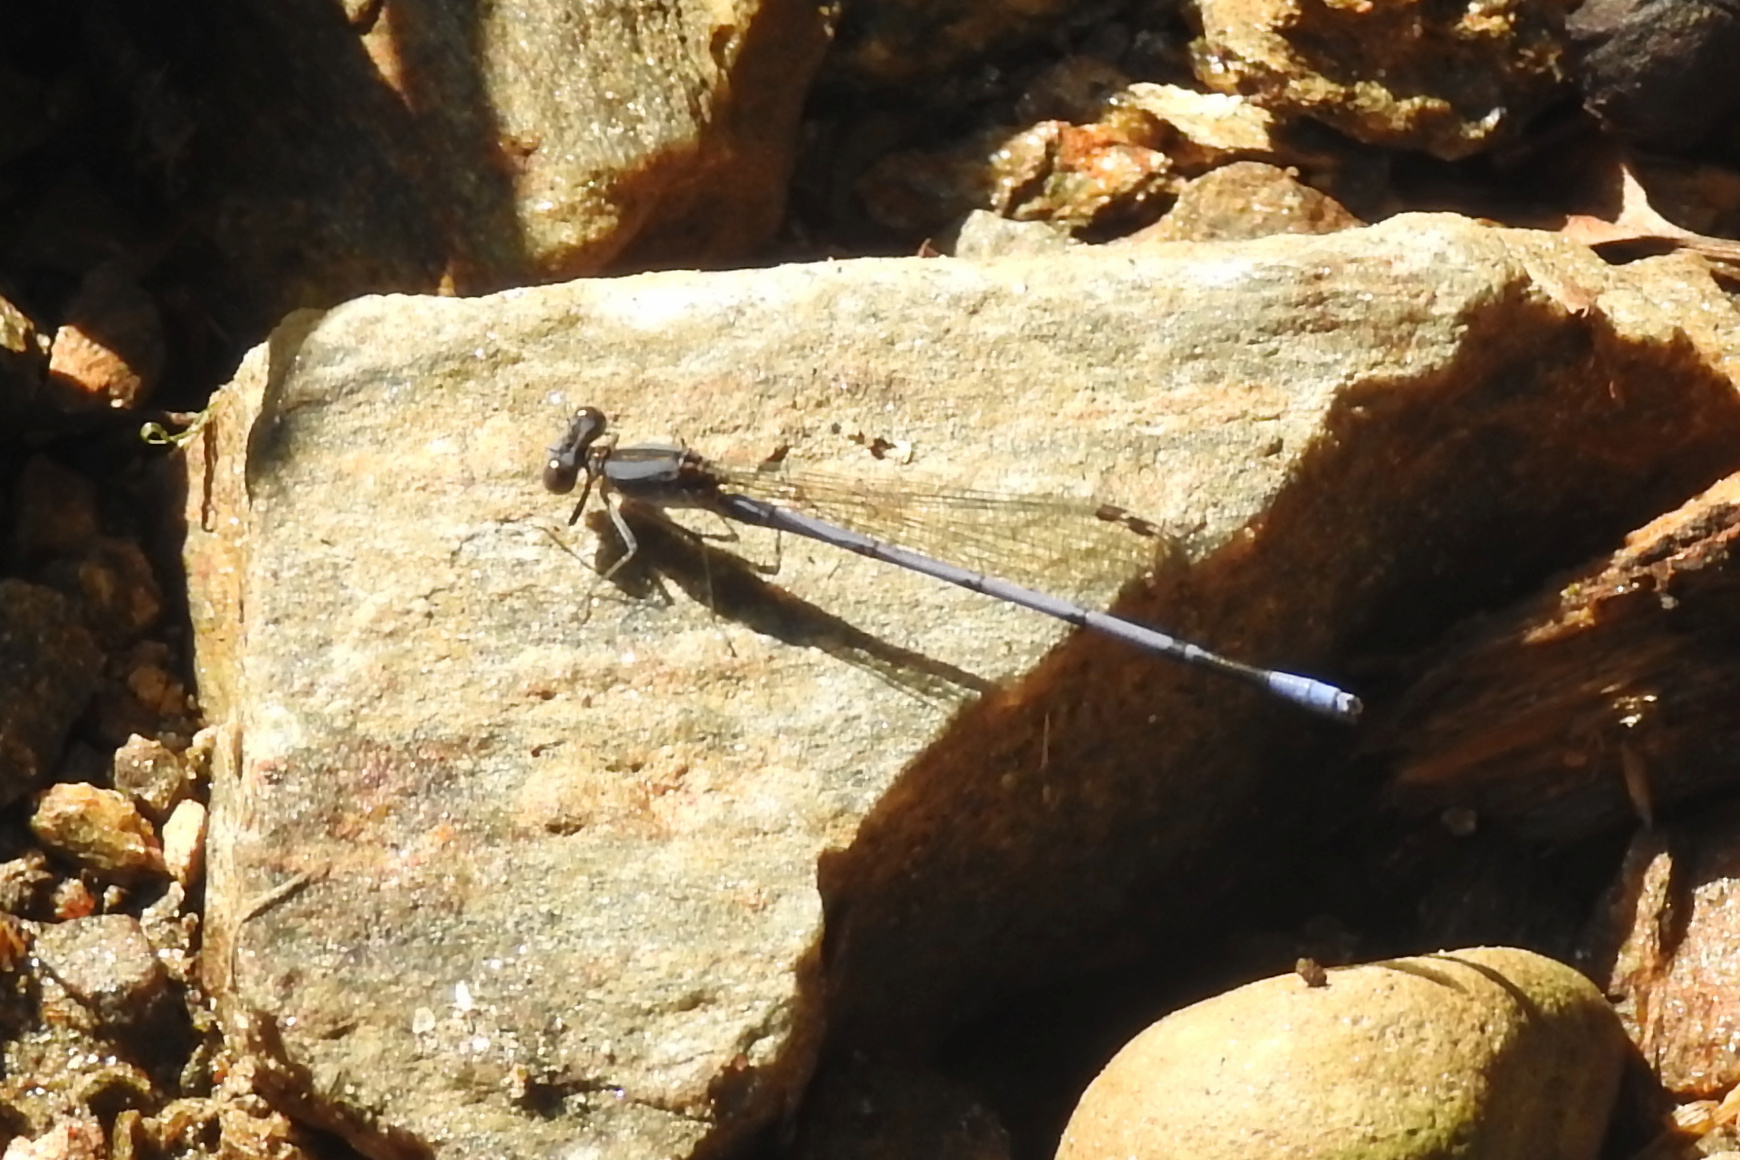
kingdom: Animalia
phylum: Arthropoda
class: Insecta
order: Odonata
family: Coenagrionidae
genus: Argia
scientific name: Argia fumipennis
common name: Variable dancer
